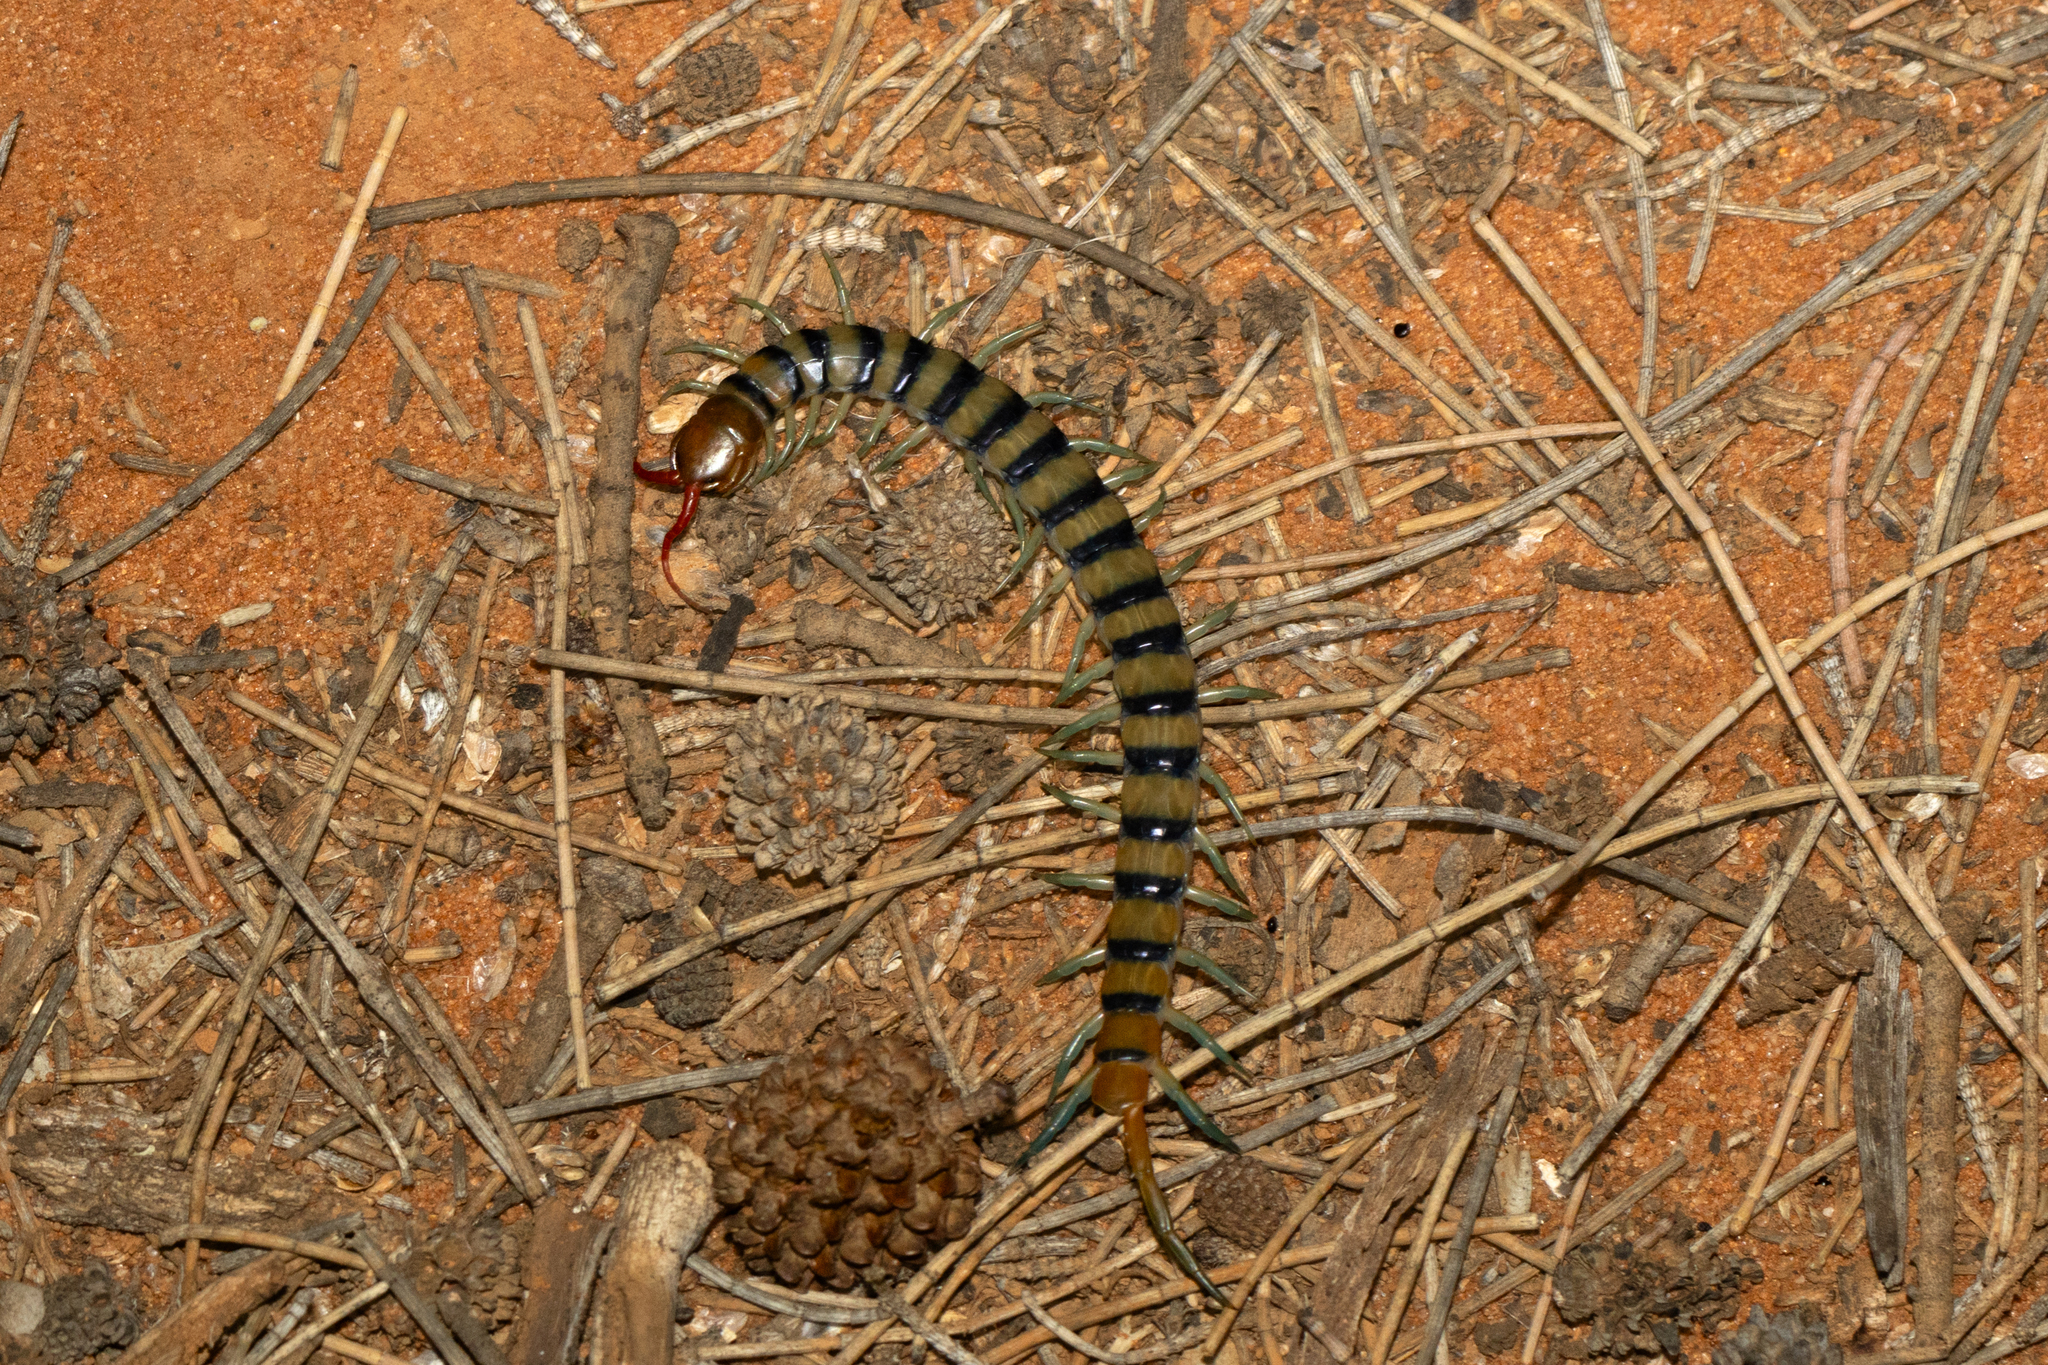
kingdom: Animalia
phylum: Arthropoda
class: Chilopoda
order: Scolopendromorpha
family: Scolopendridae
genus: Scolopendra
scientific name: Scolopendra morsitans
